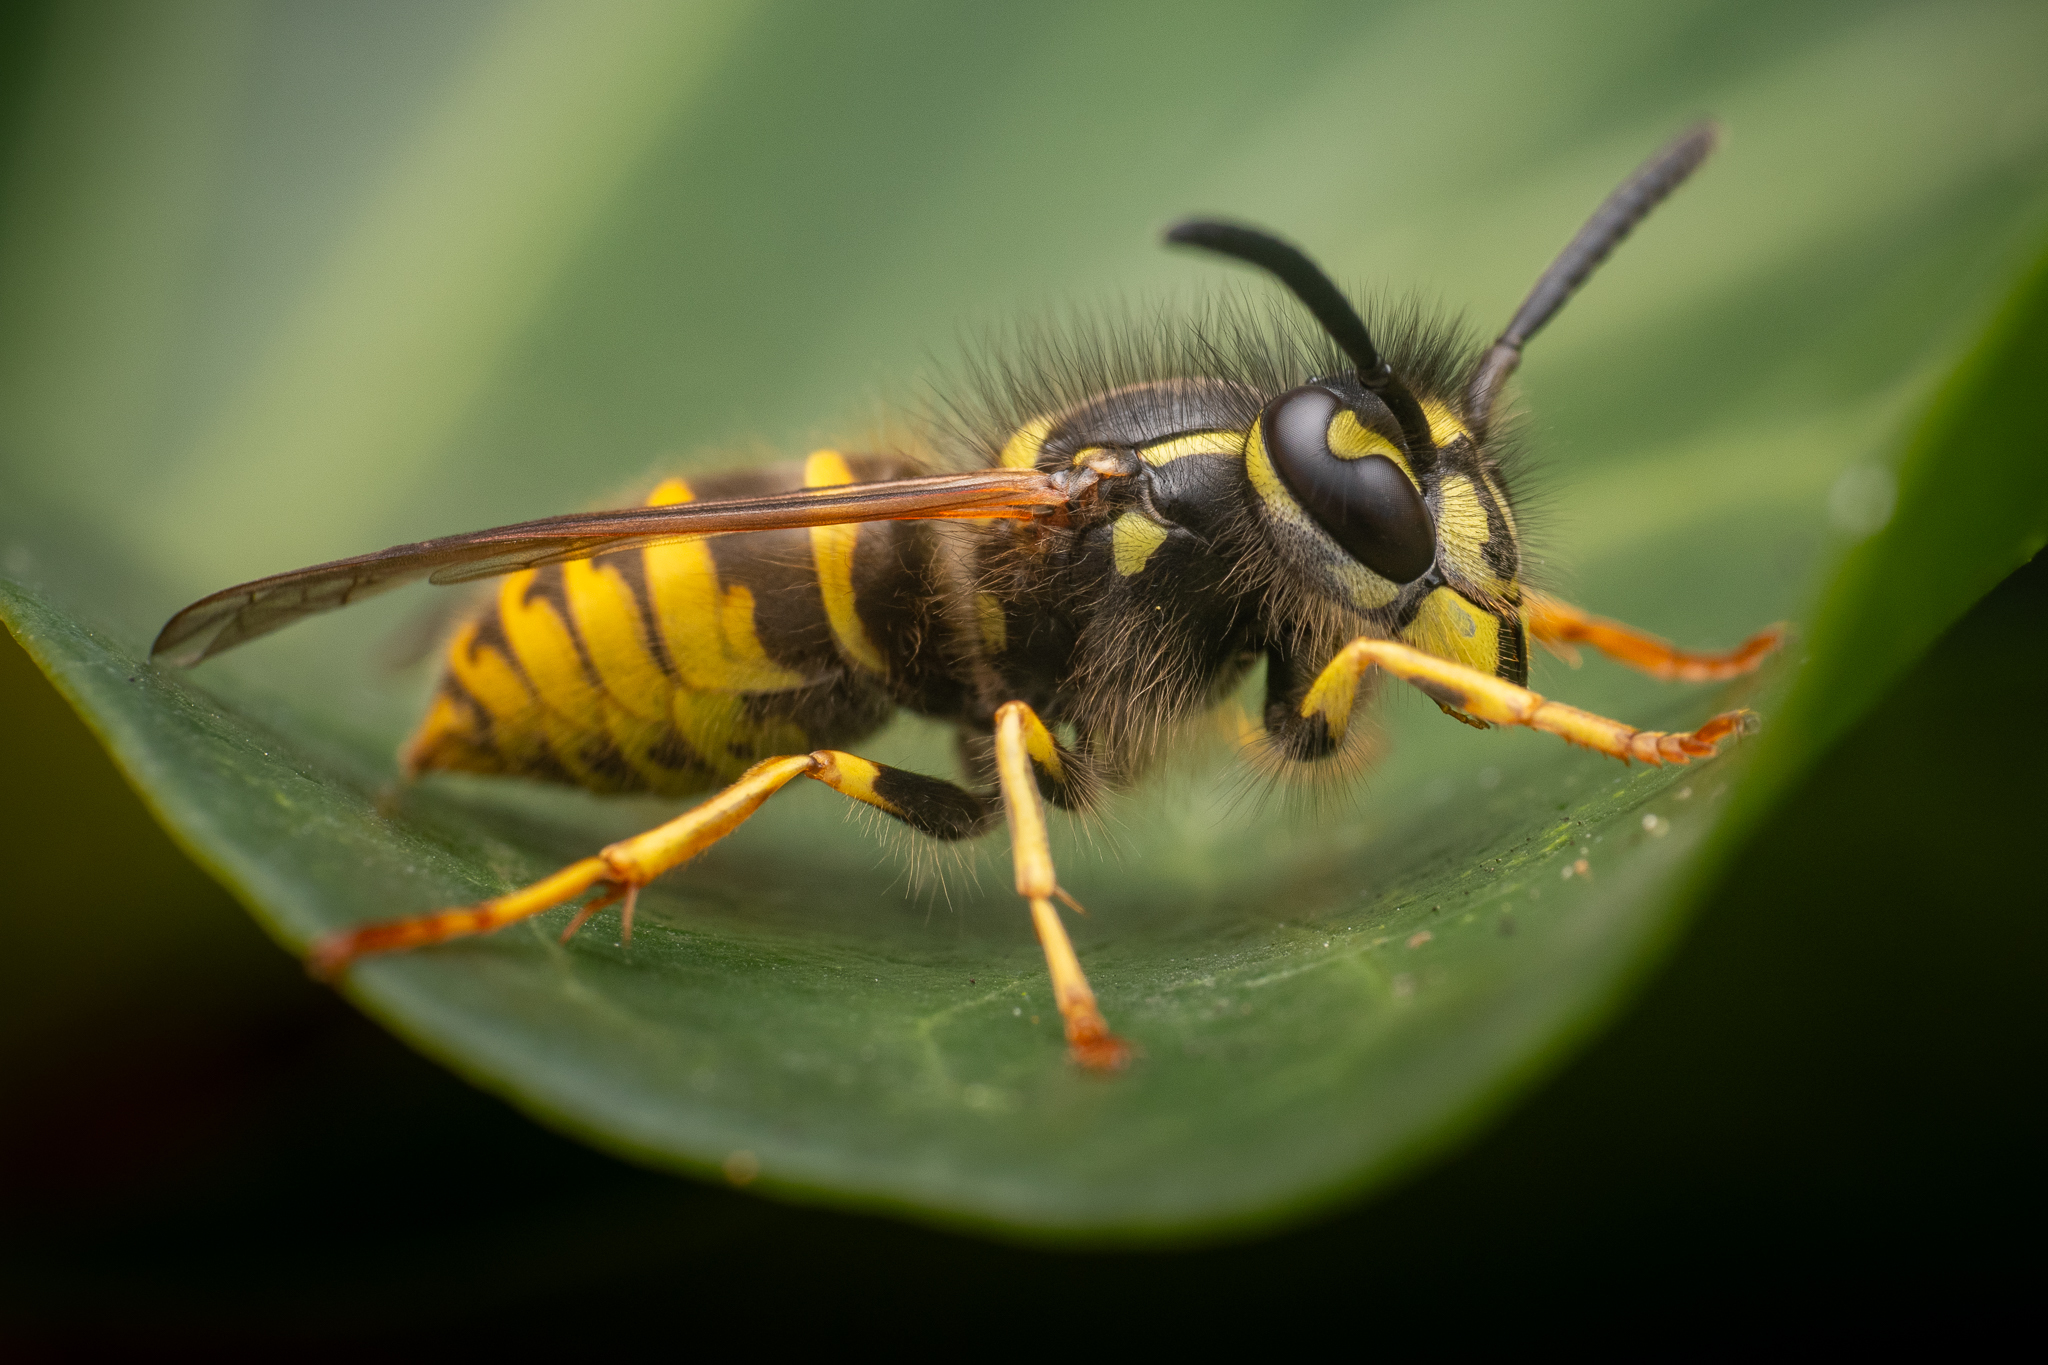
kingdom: Animalia
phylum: Arthropoda
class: Insecta
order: Hymenoptera
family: Vespidae
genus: Vespula
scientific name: Vespula vulgaris
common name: Common wasp
